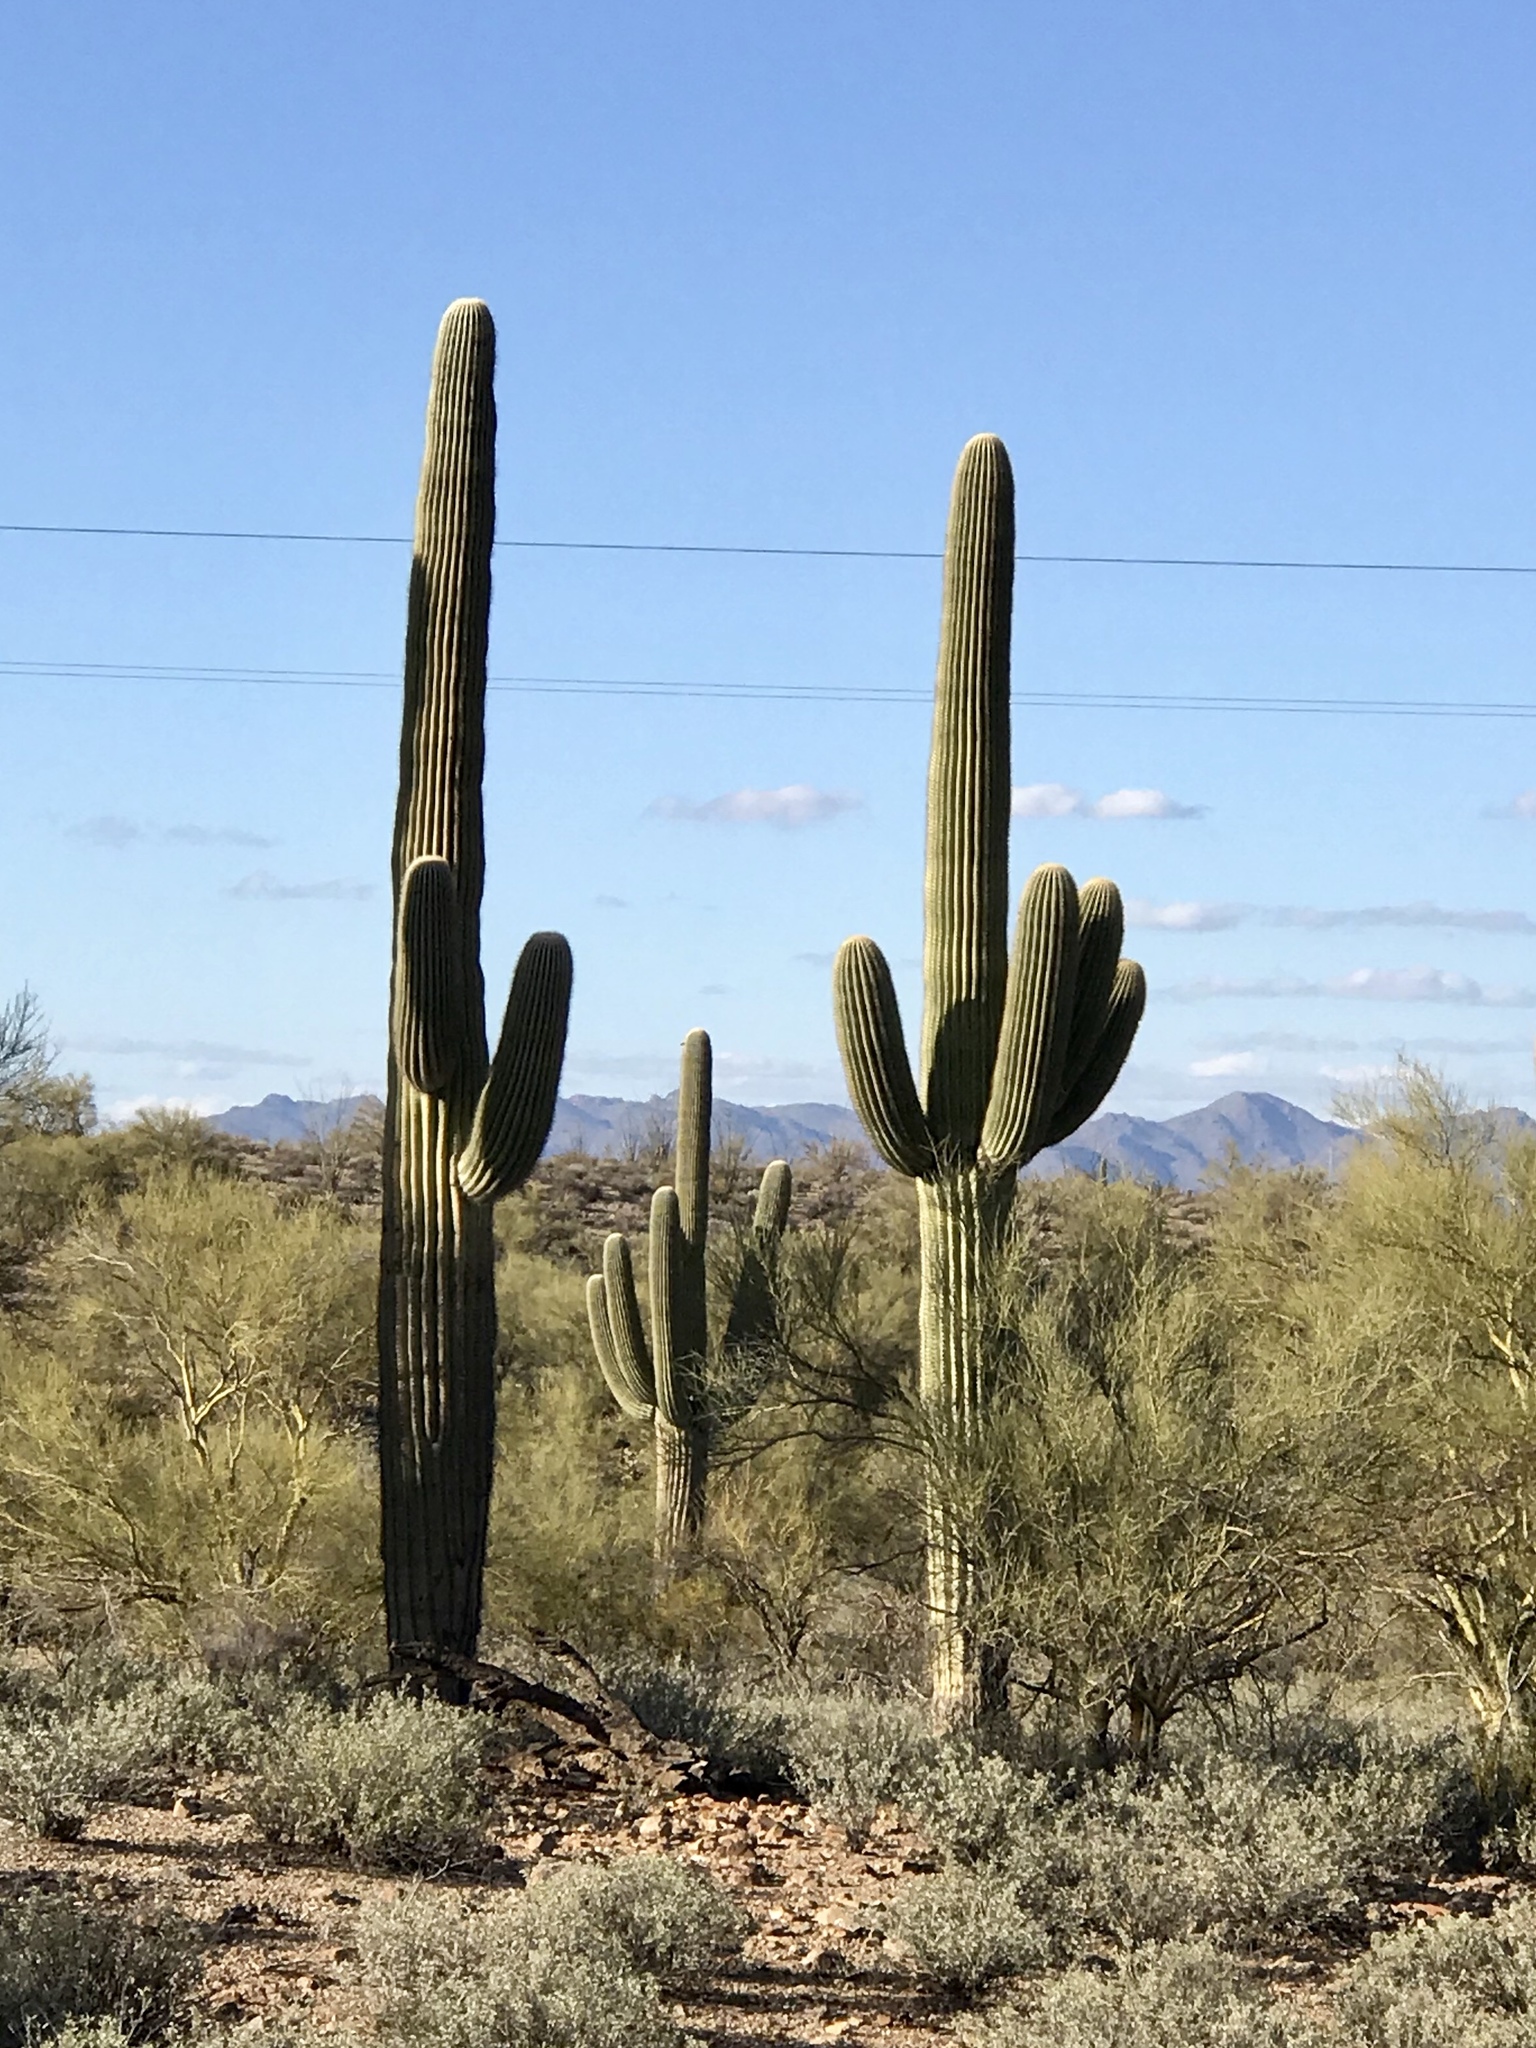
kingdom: Plantae
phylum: Tracheophyta
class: Magnoliopsida
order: Caryophyllales
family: Cactaceae
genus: Carnegiea
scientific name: Carnegiea gigantea
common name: Saguaro
